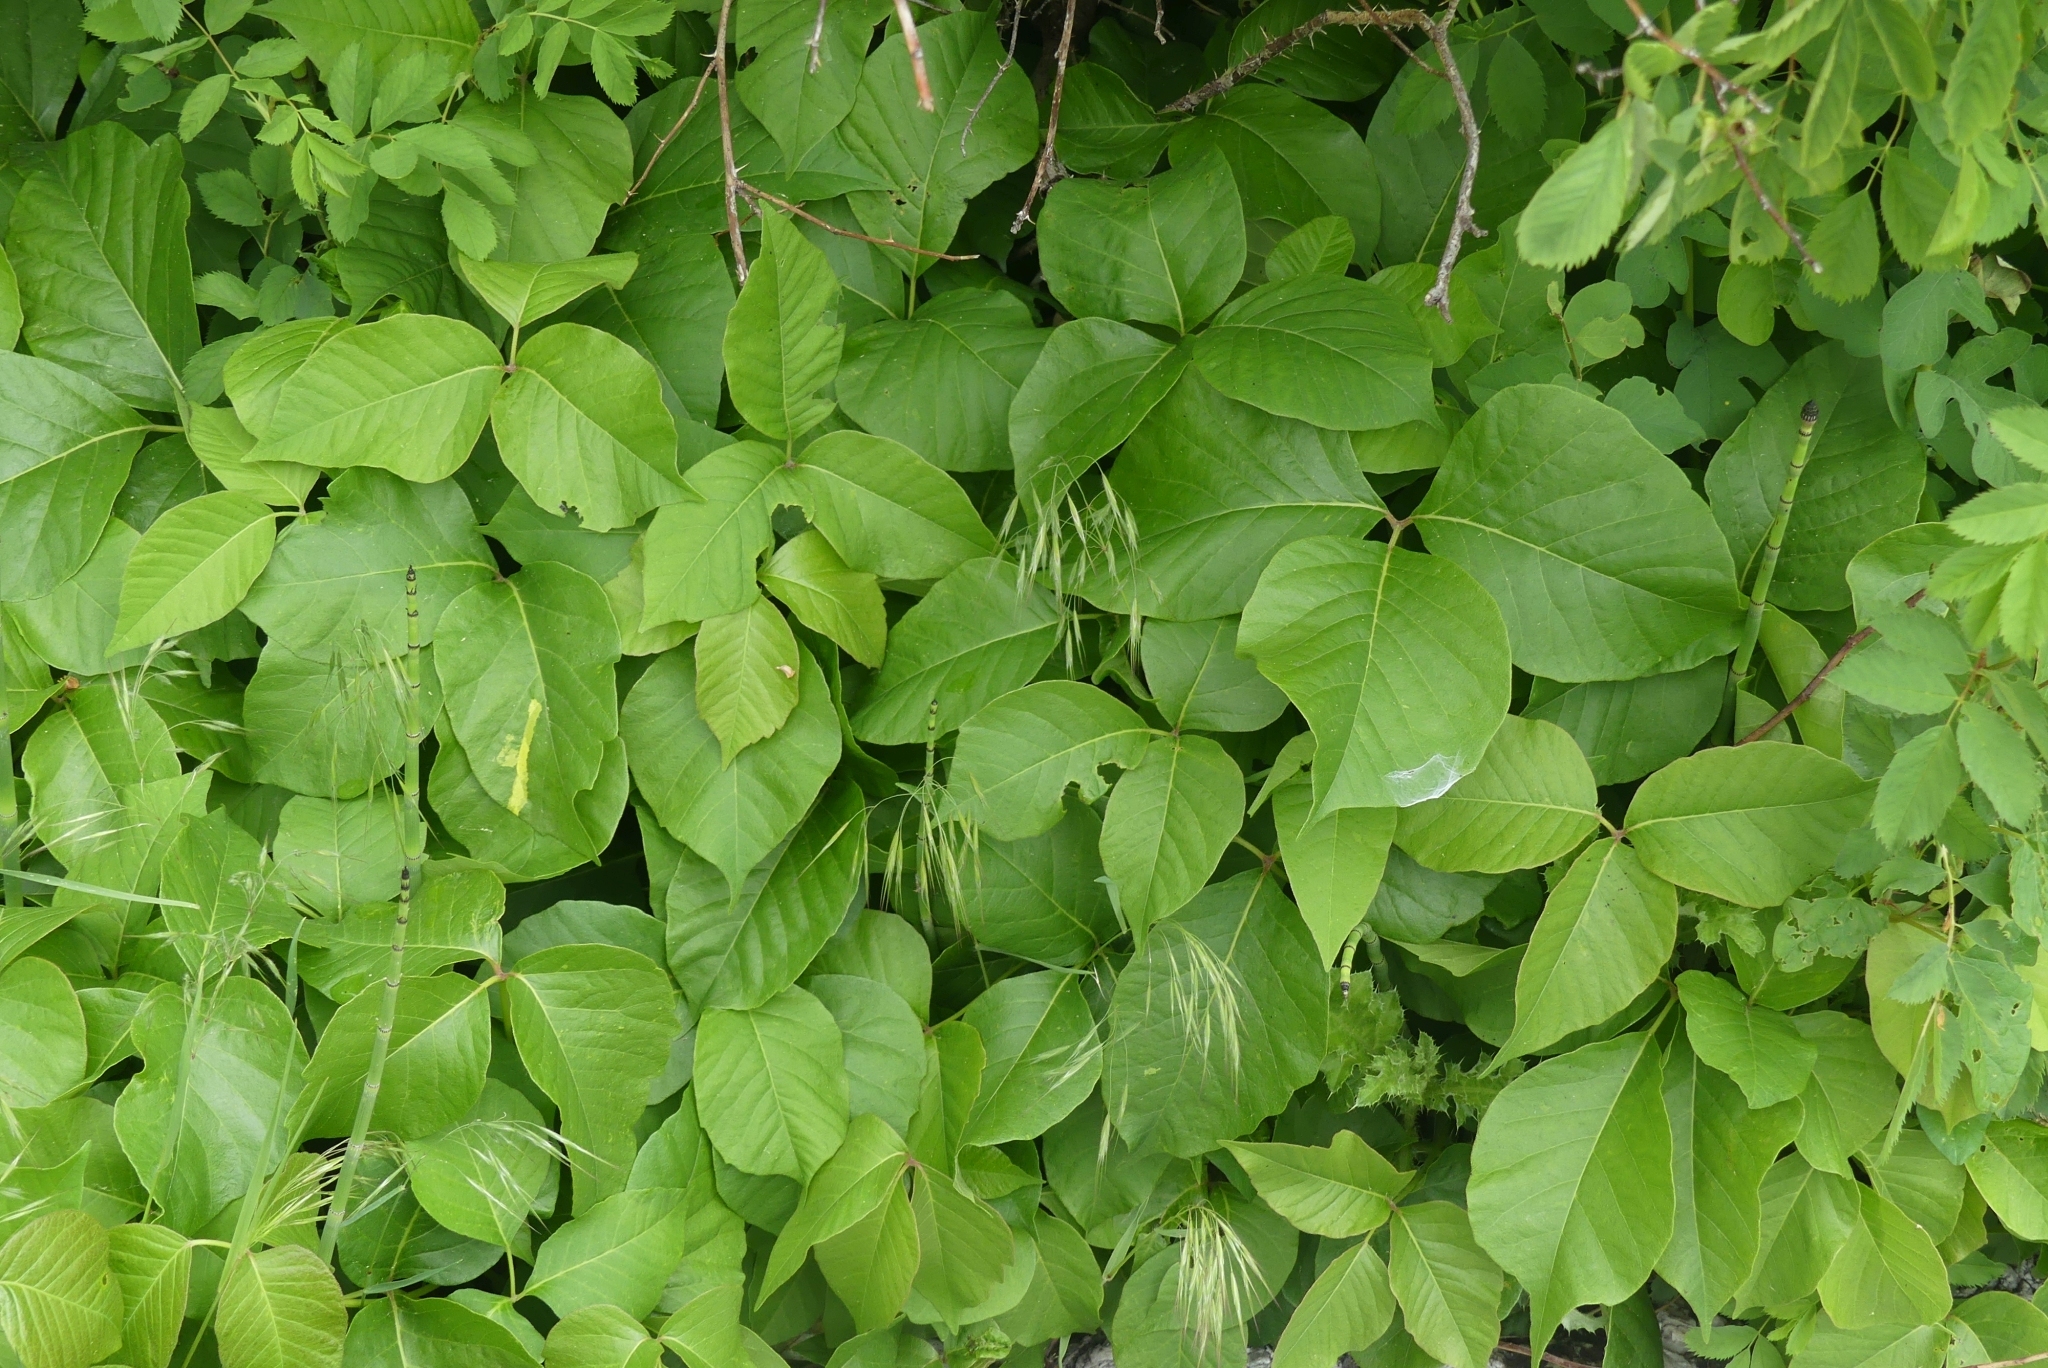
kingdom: Plantae
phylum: Tracheophyta
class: Magnoliopsida
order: Sapindales
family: Anacardiaceae
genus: Toxicodendron
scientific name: Toxicodendron rydbergii
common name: Rydberg's poison-ivy
